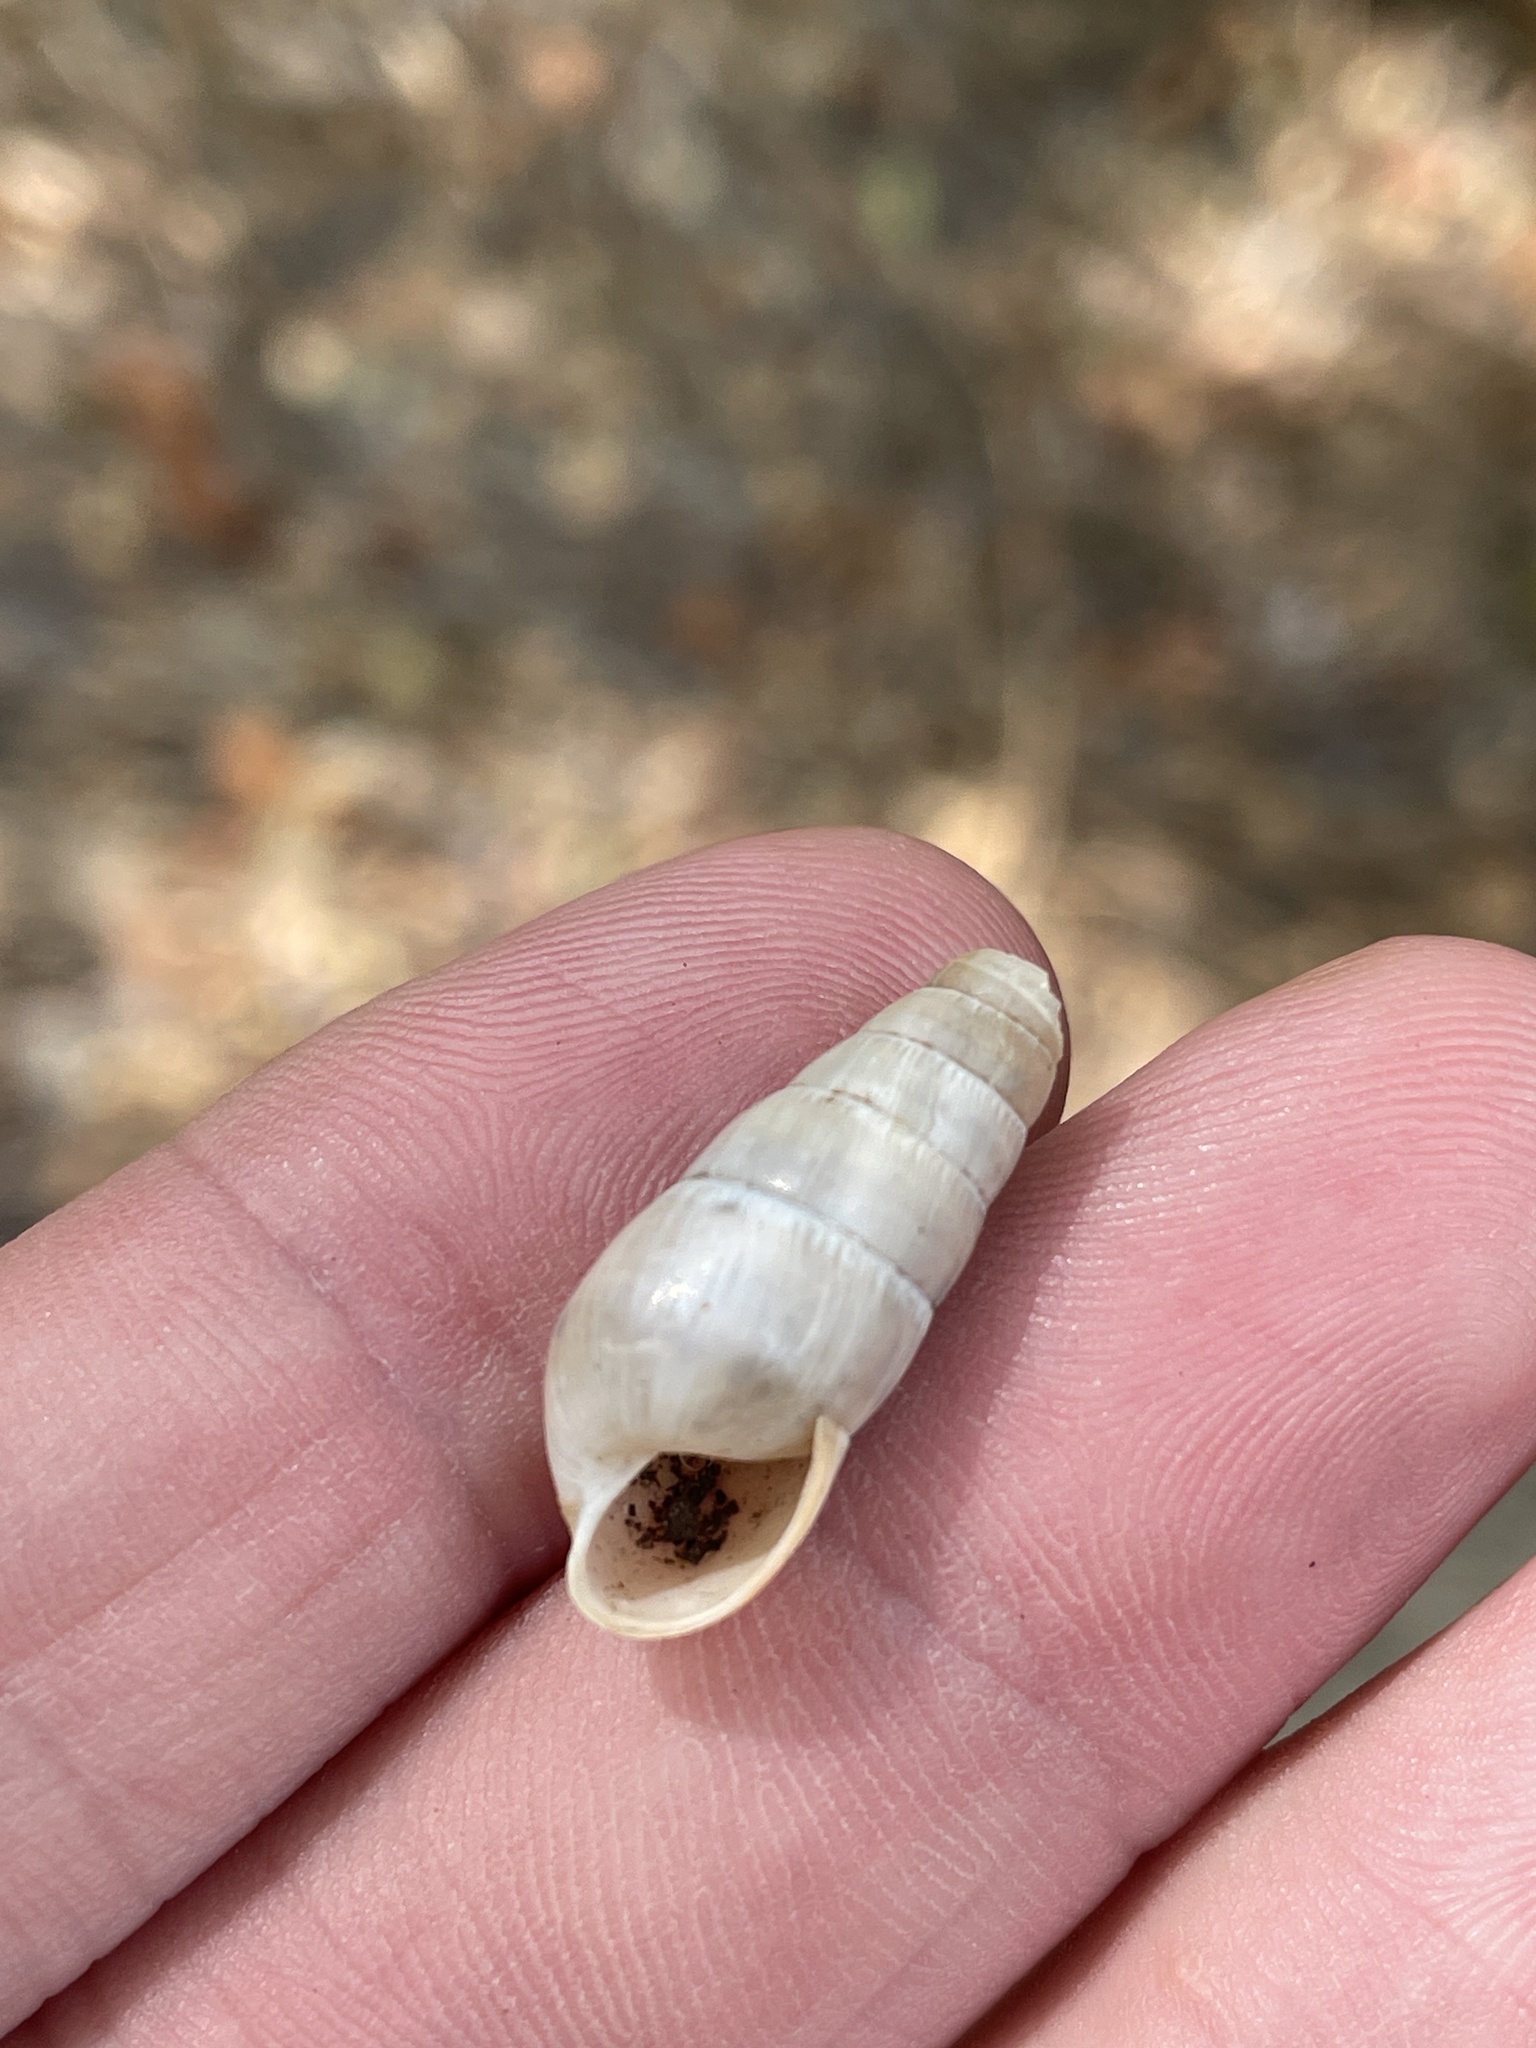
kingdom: Animalia
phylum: Mollusca
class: Gastropoda
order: Stylommatophora
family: Achatinidae
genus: Rumina
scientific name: Rumina decollata
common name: Decollate snail
